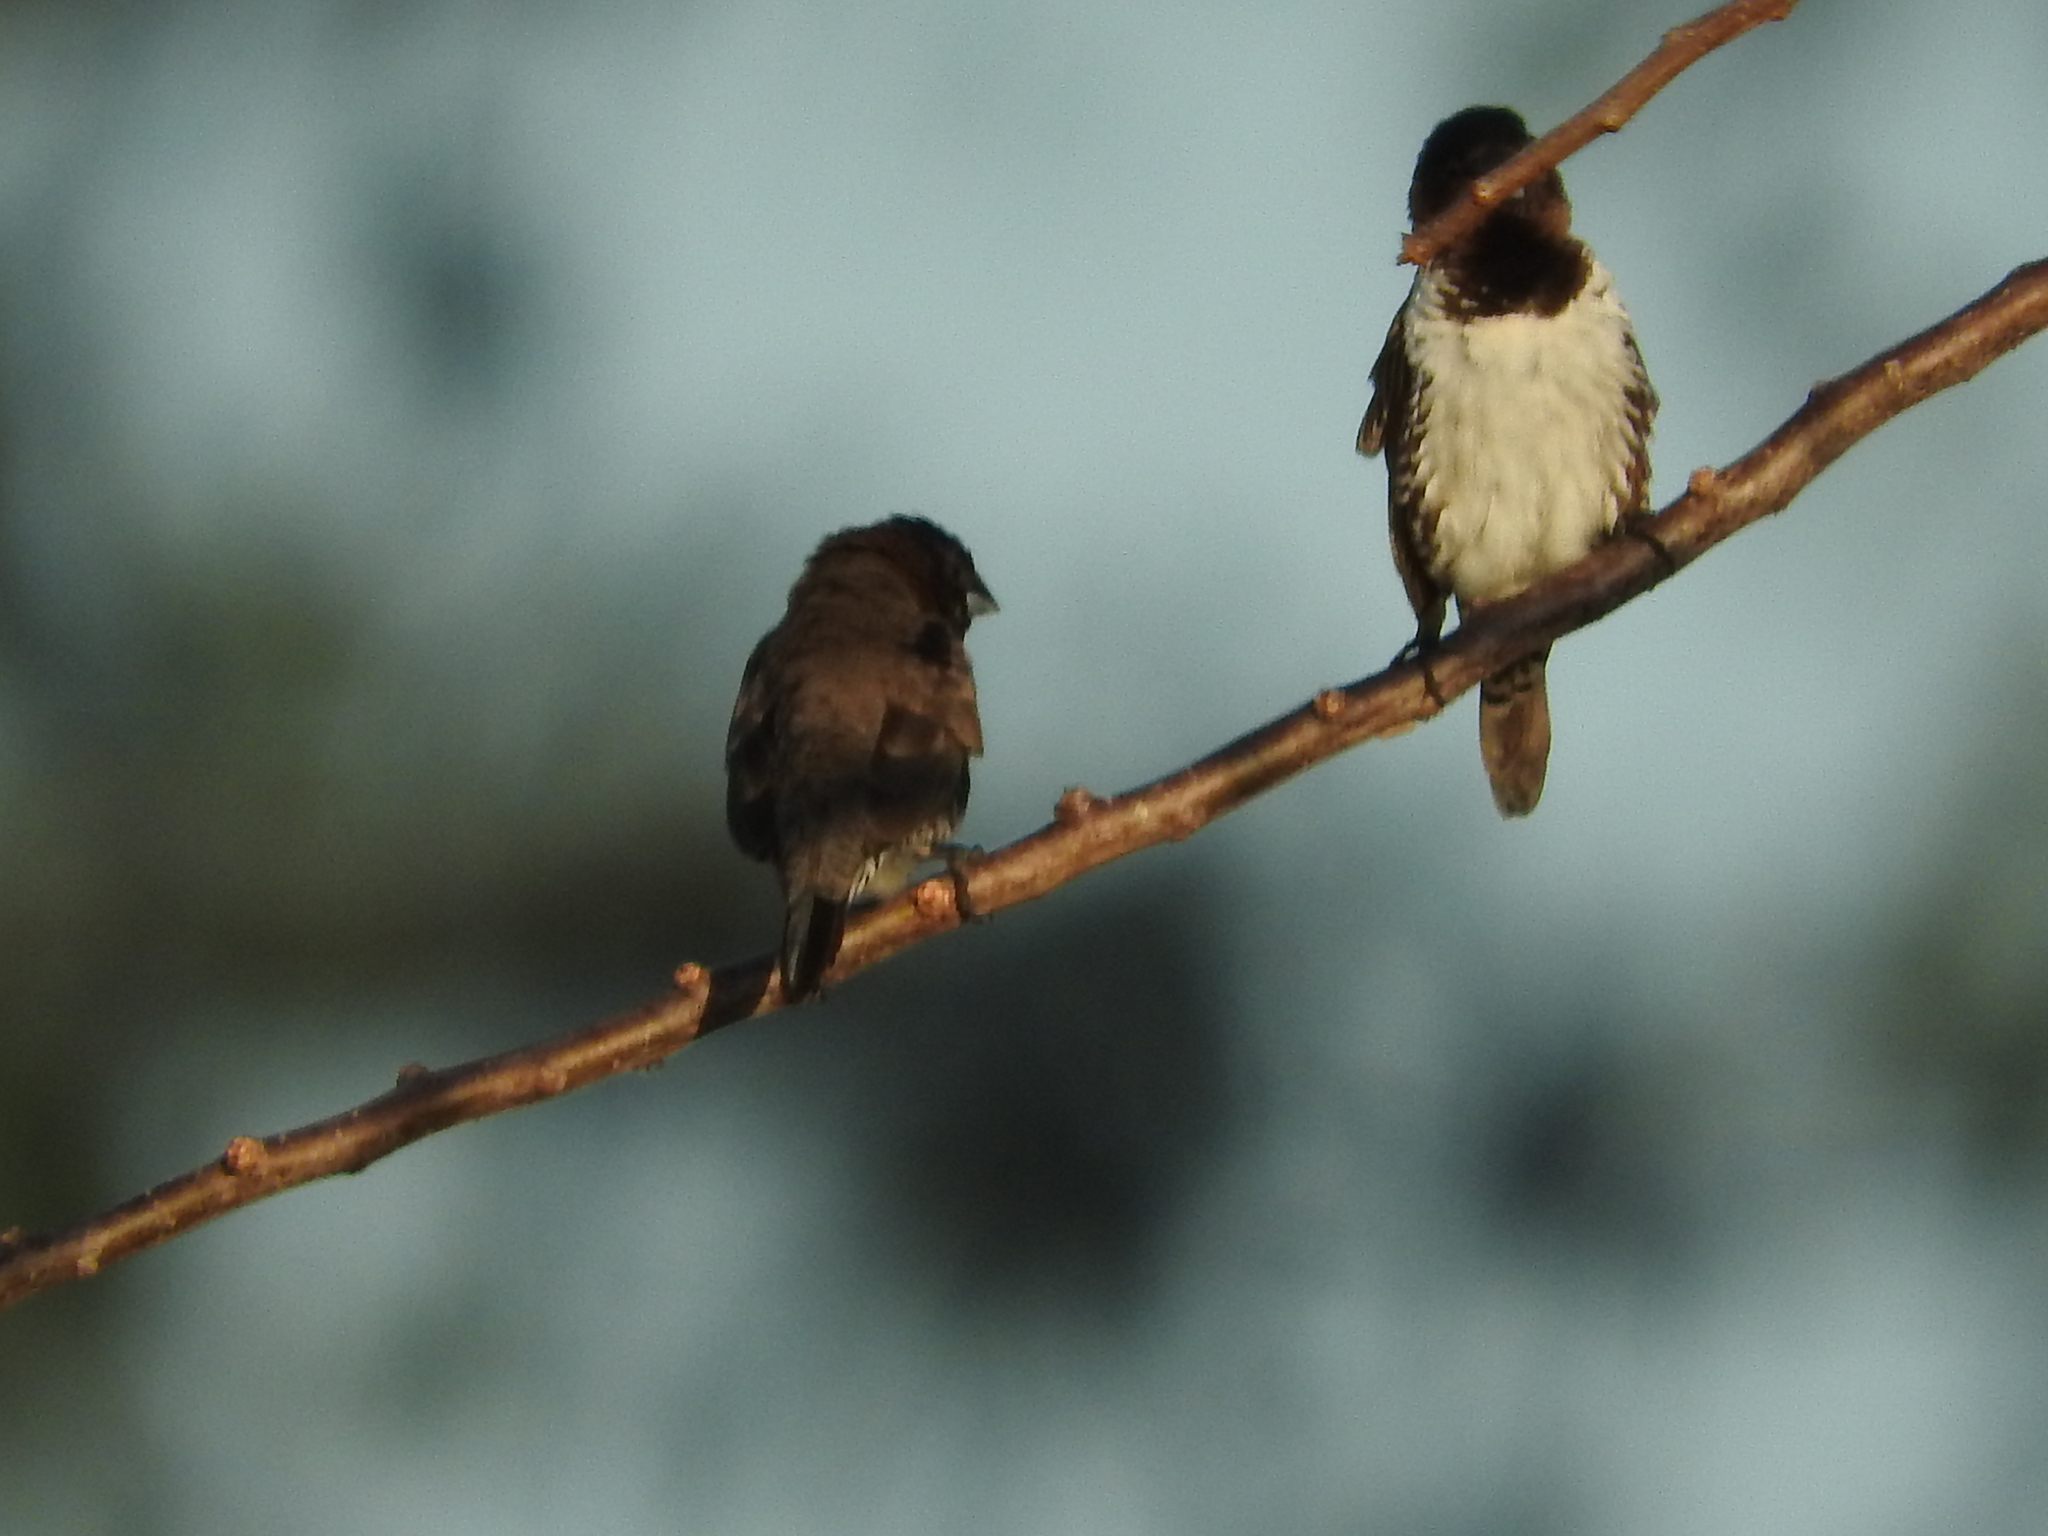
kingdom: Animalia
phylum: Chordata
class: Aves
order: Passeriformes
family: Estrildidae
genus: Lonchura
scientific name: Lonchura cucullata
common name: Bronze mannikin
